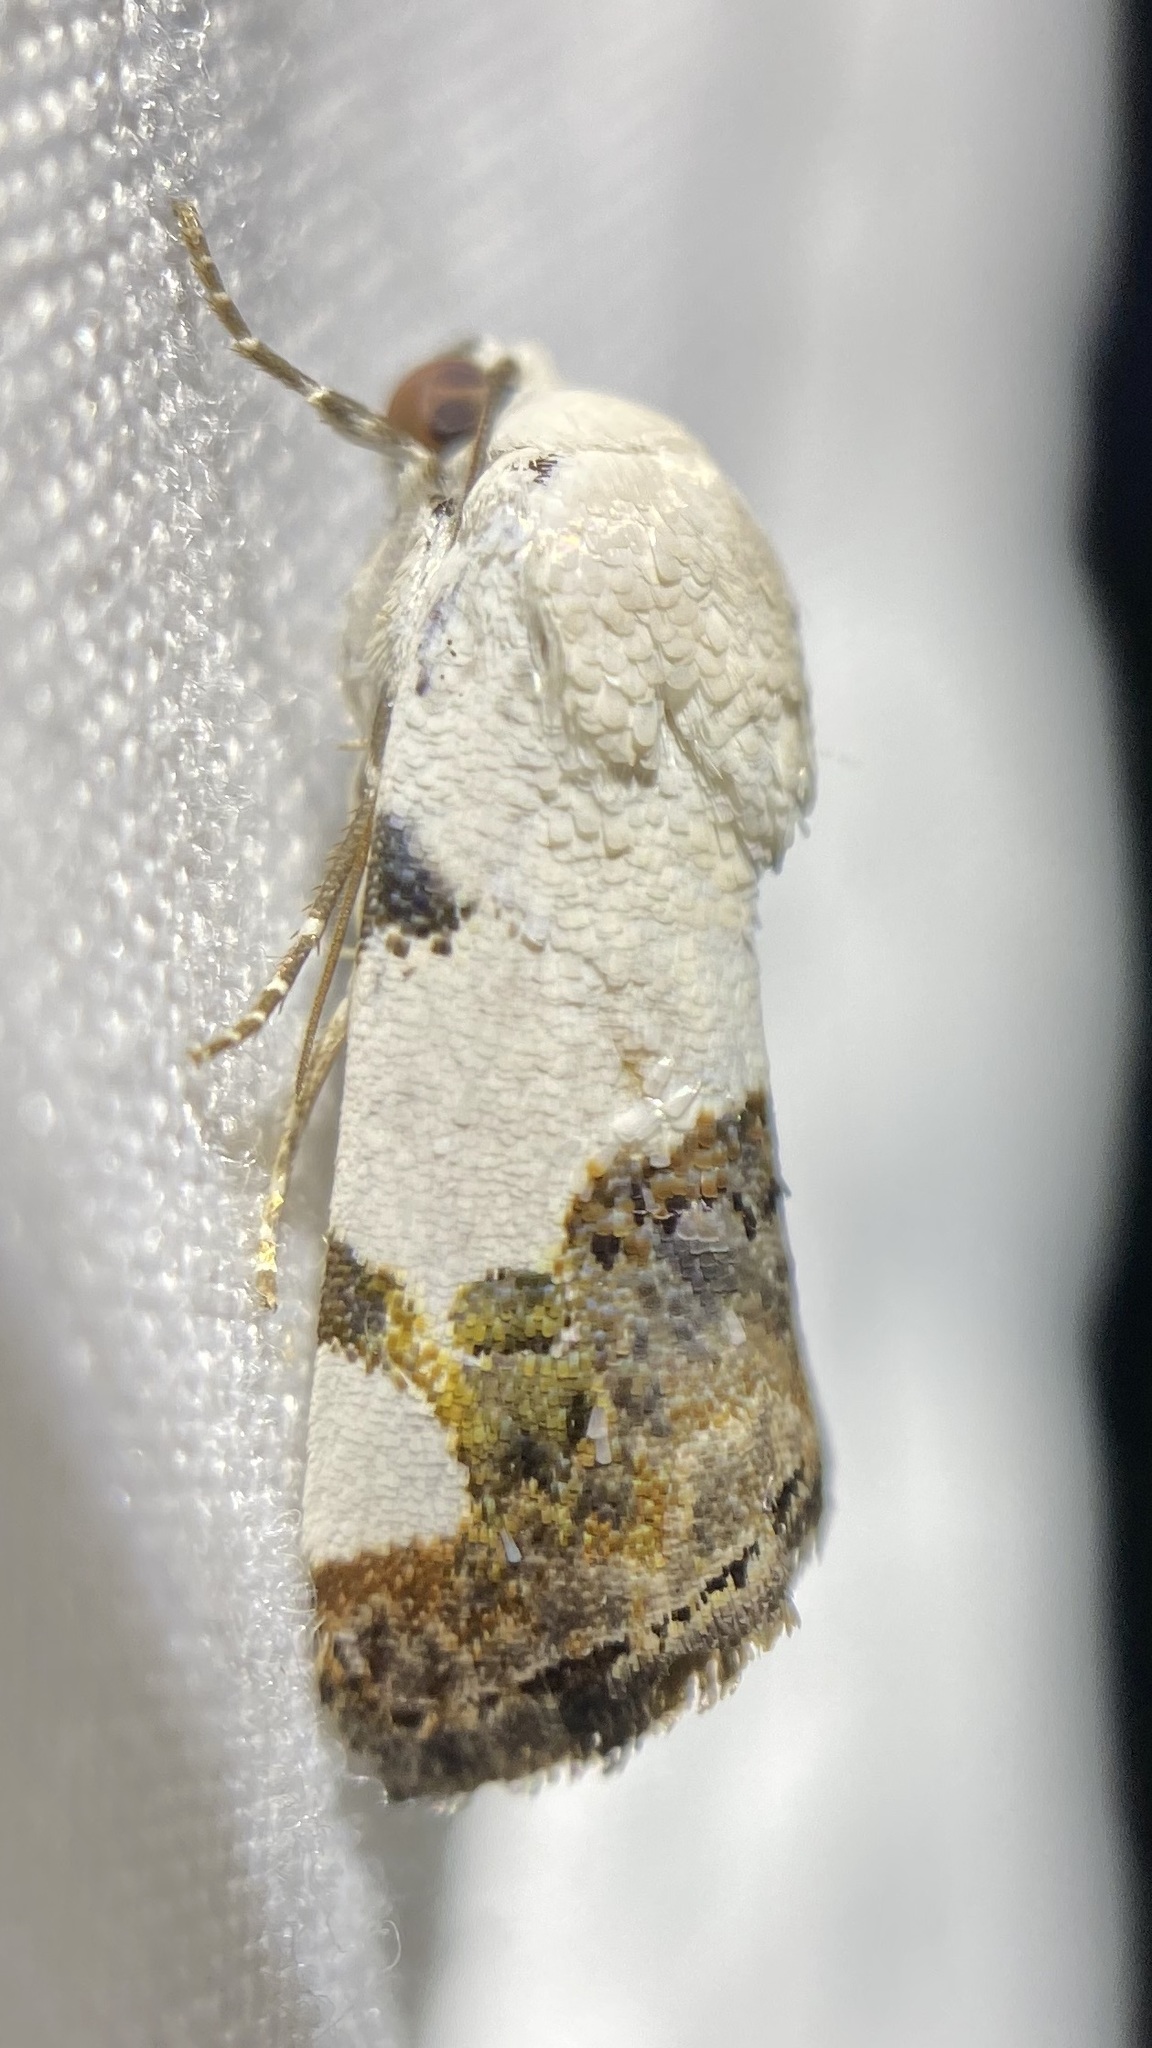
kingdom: Animalia
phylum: Arthropoda
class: Insecta
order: Lepidoptera
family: Noctuidae
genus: Acontia
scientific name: Acontia quadriplaga
